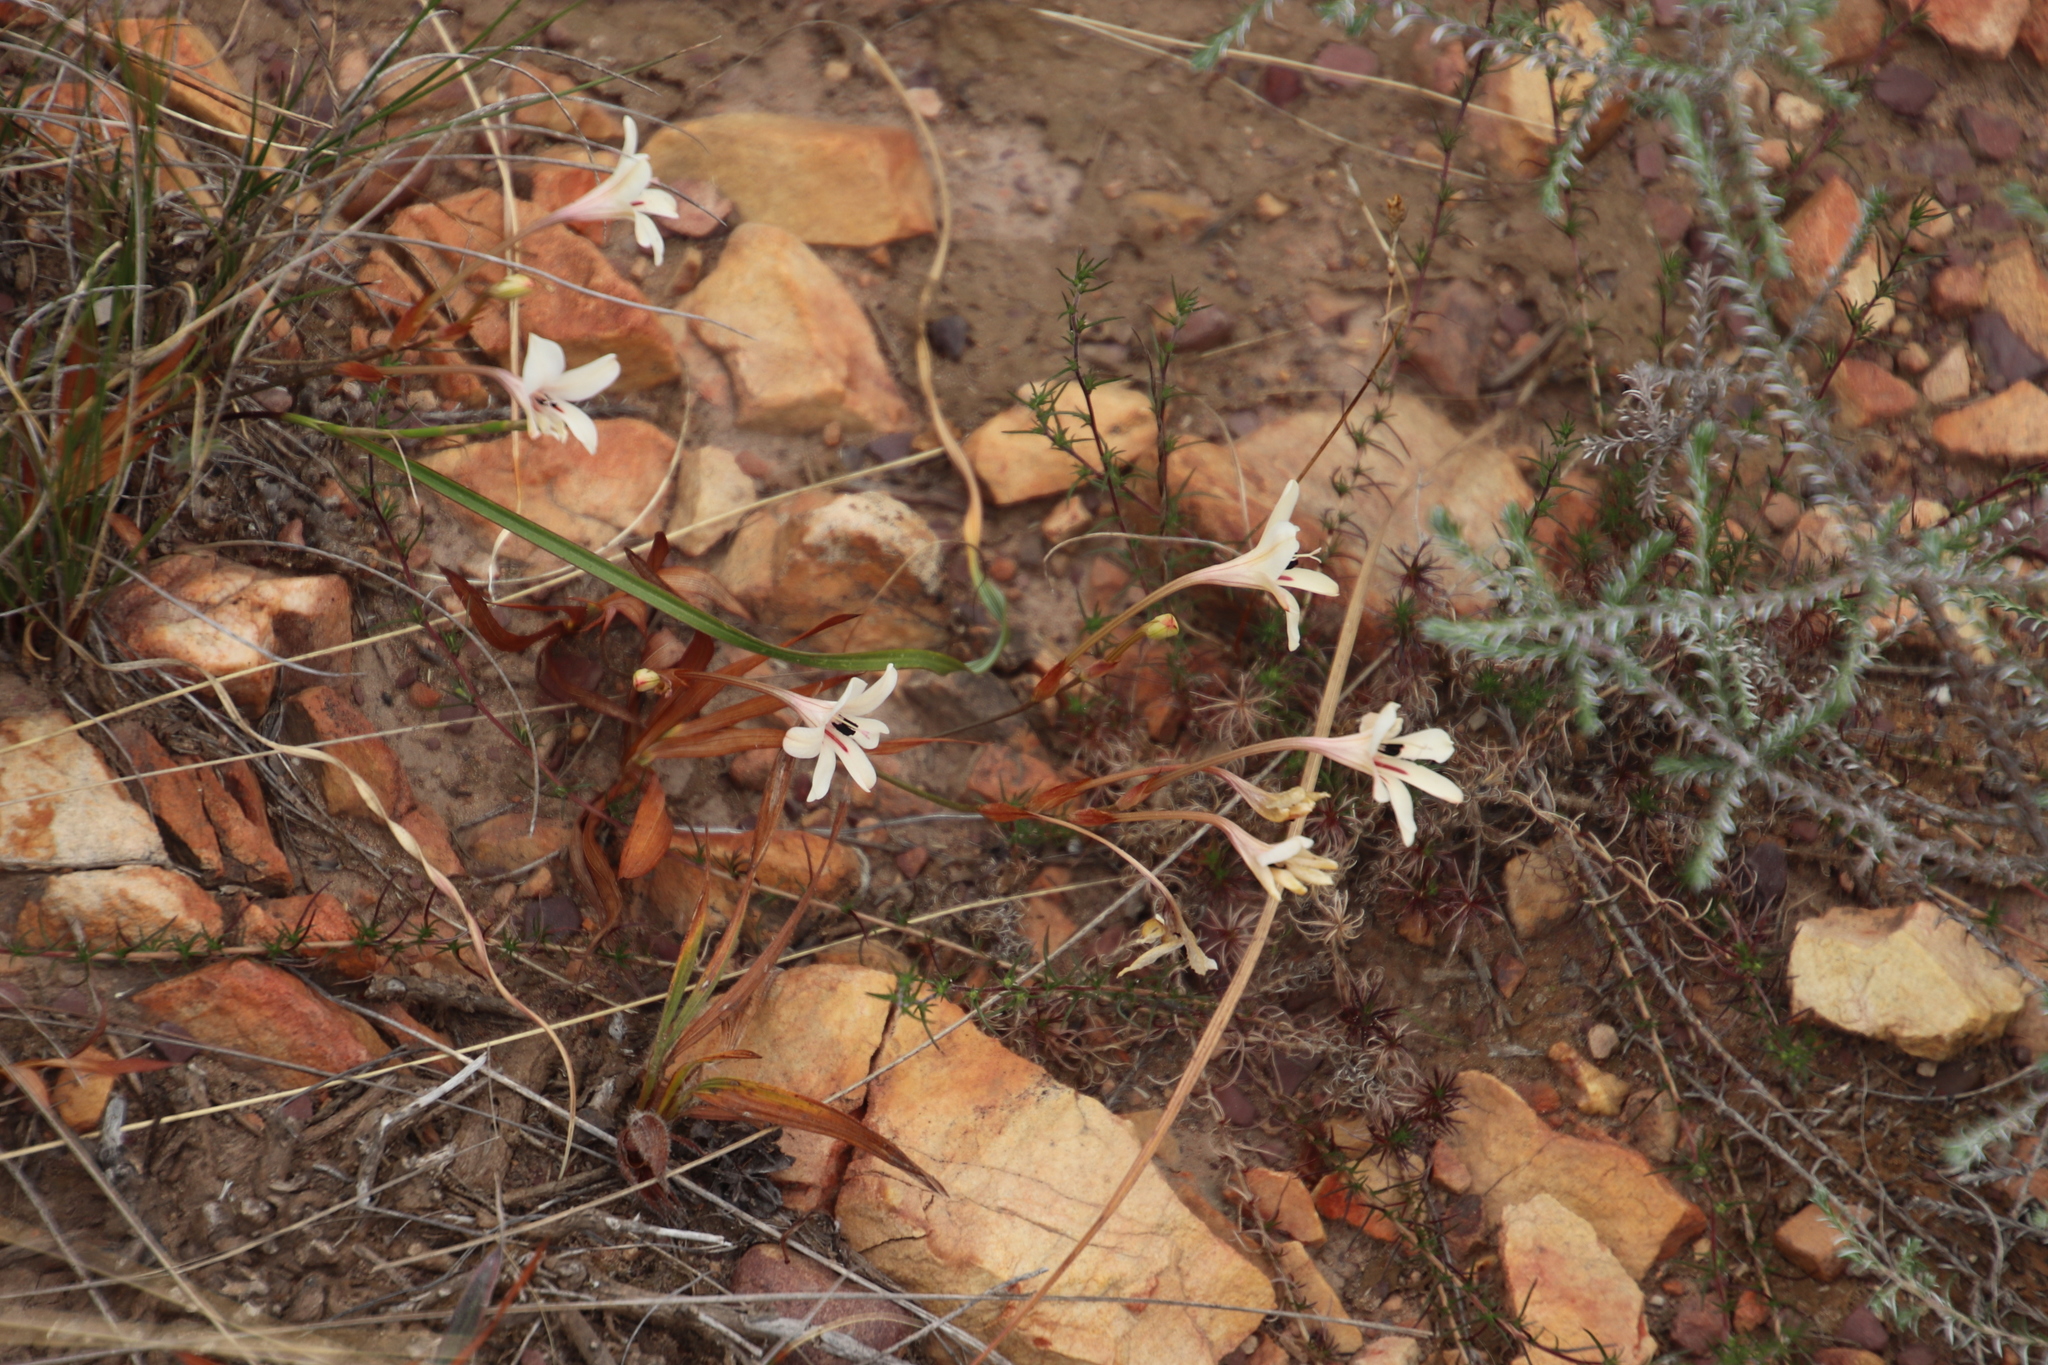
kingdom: Plantae
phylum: Tracheophyta
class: Liliopsida
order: Asparagales
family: Iridaceae
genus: Tritonia
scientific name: Tritonia flabellifolia
